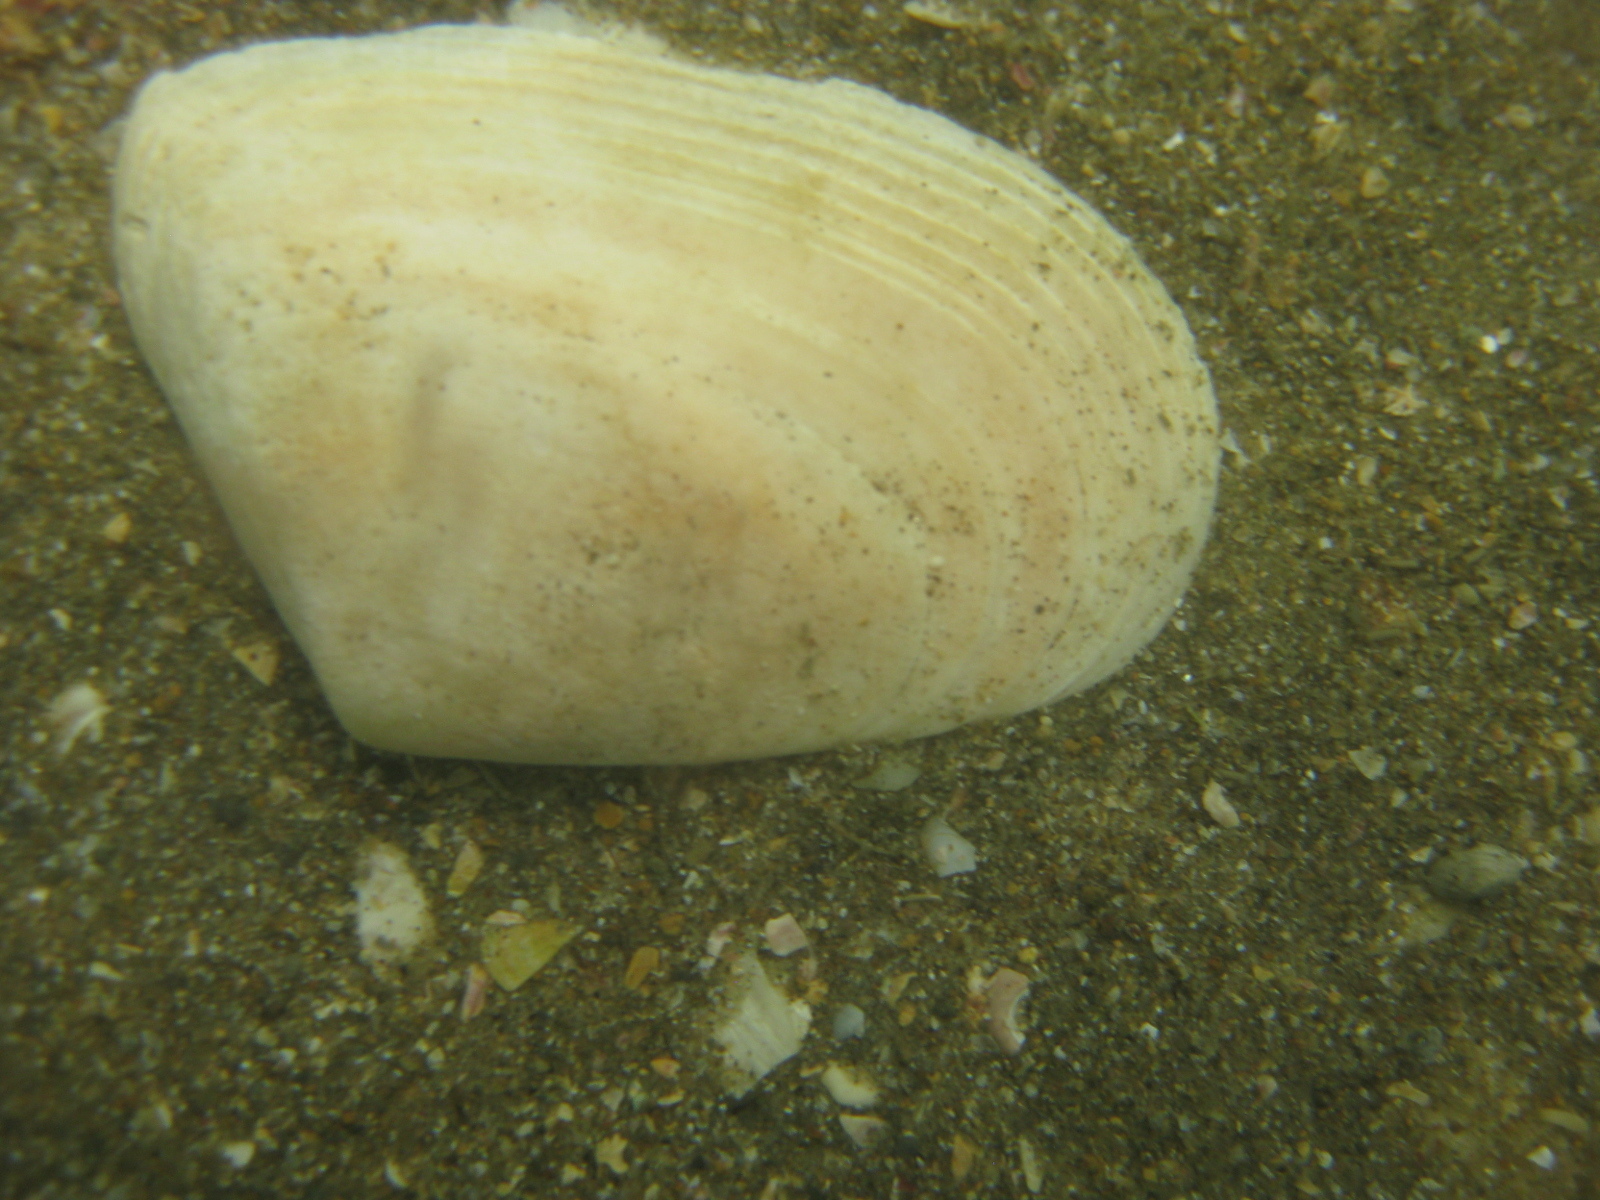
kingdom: Animalia
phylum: Mollusca
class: Bivalvia
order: Venerida
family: Mesodesmatidae
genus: Paphies
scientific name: Paphies donacina
